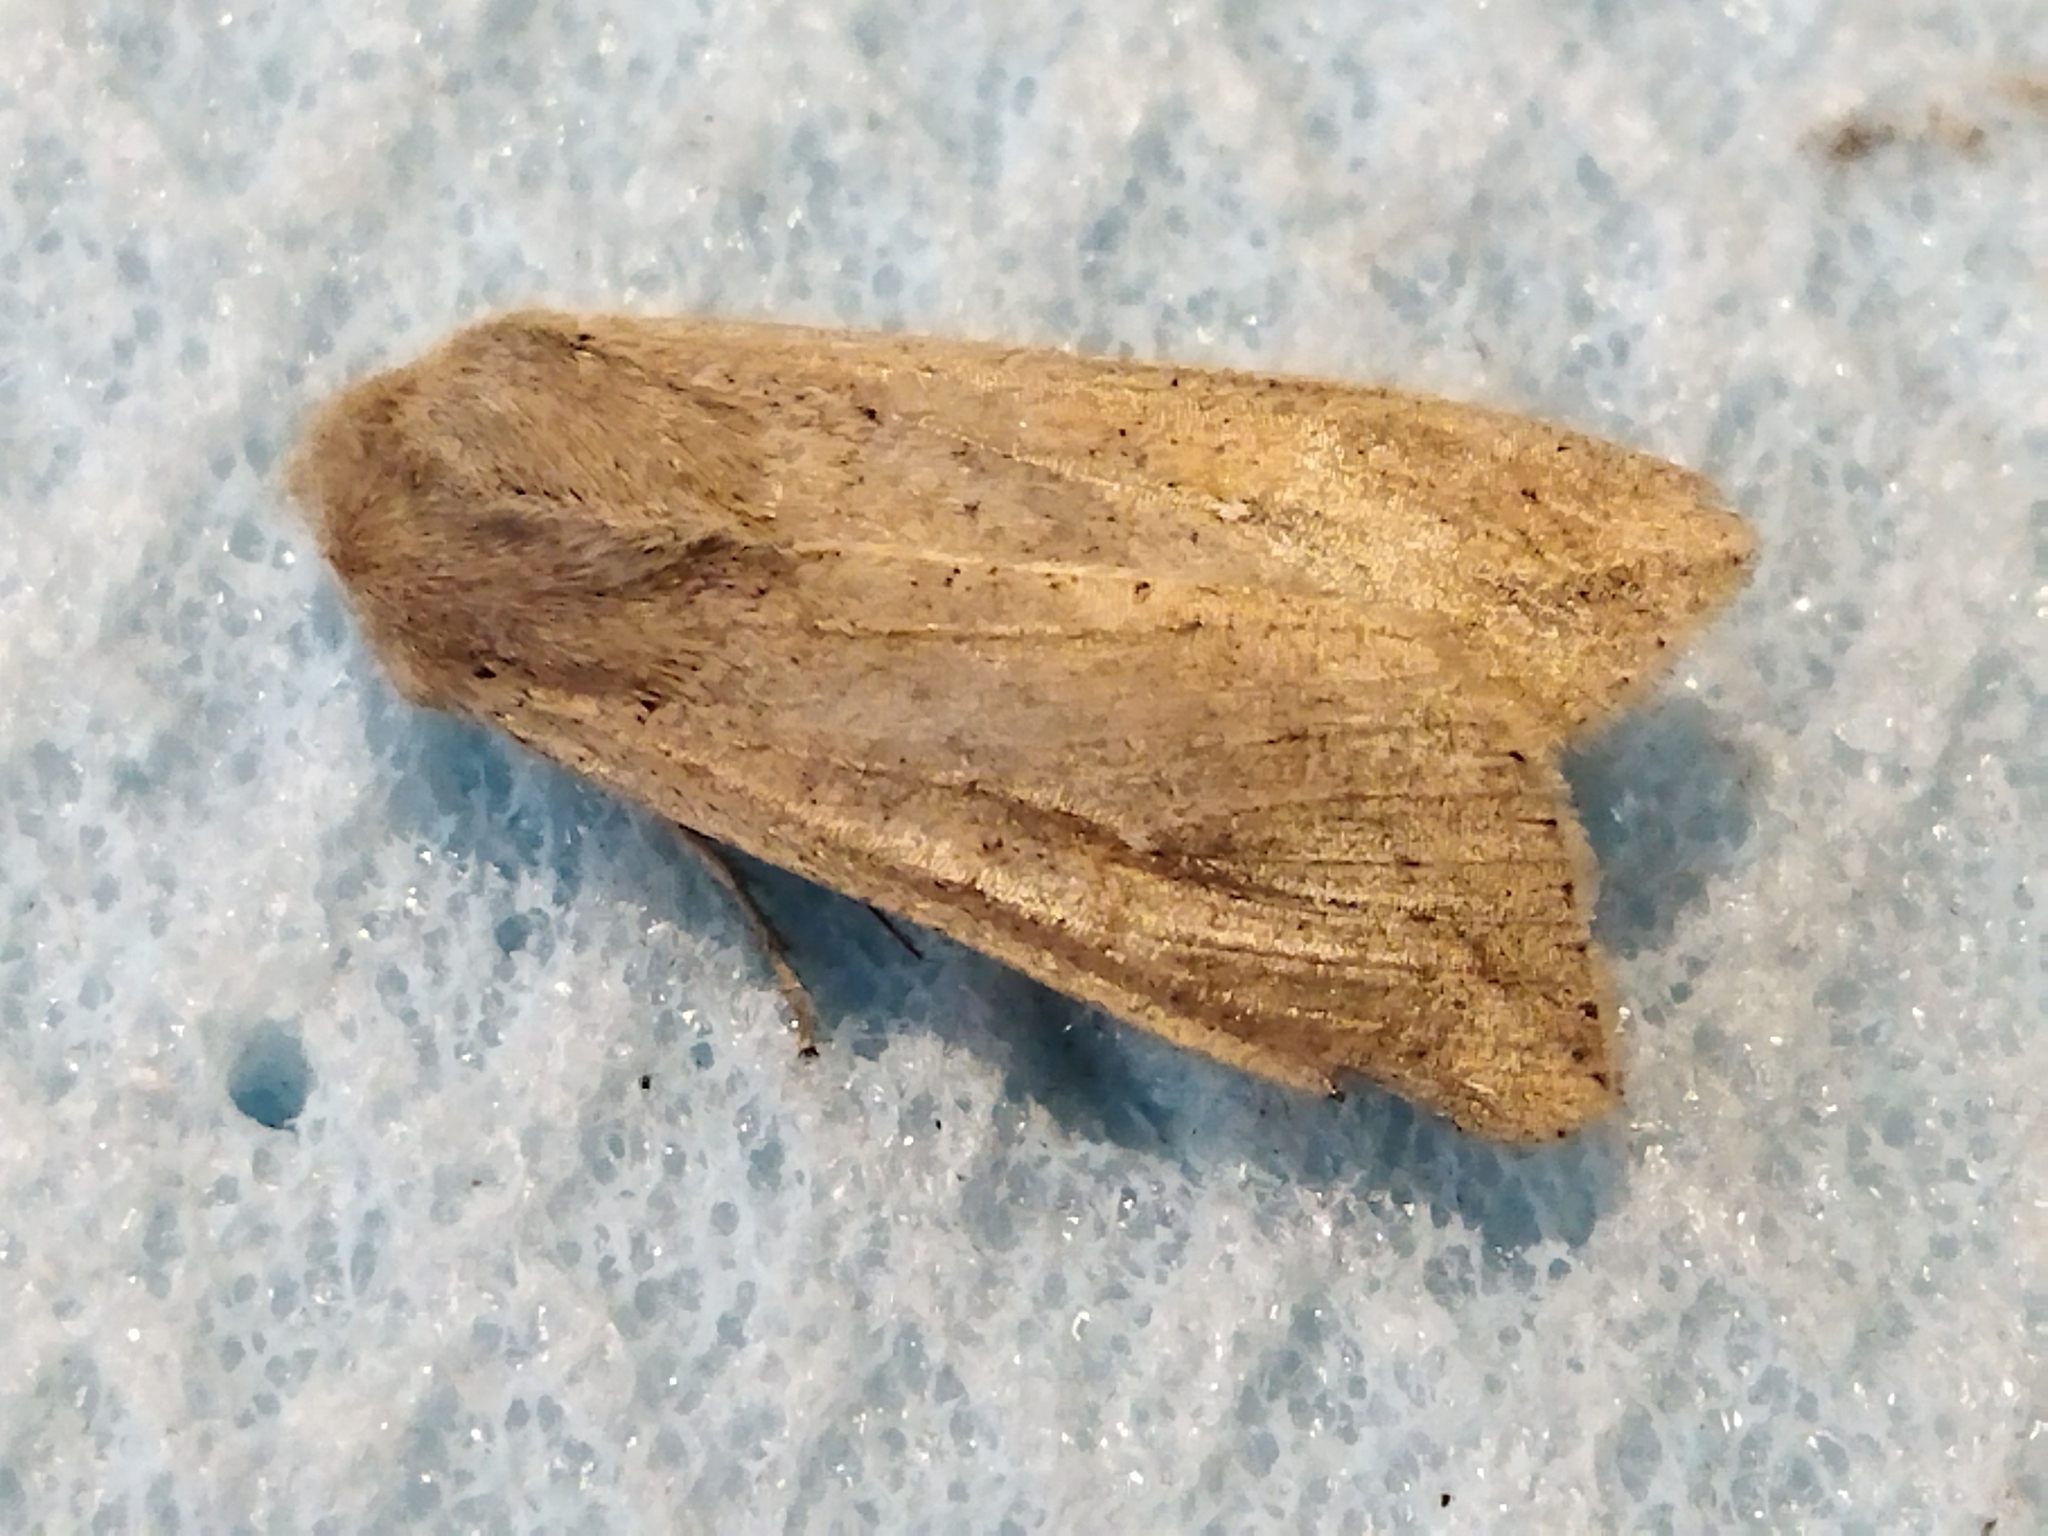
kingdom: Animalia
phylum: Arthropoda
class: Insecta
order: Lepidoptera
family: Noctuidae
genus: Mythimna
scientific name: Mythimna unipuncta
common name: White-speck
